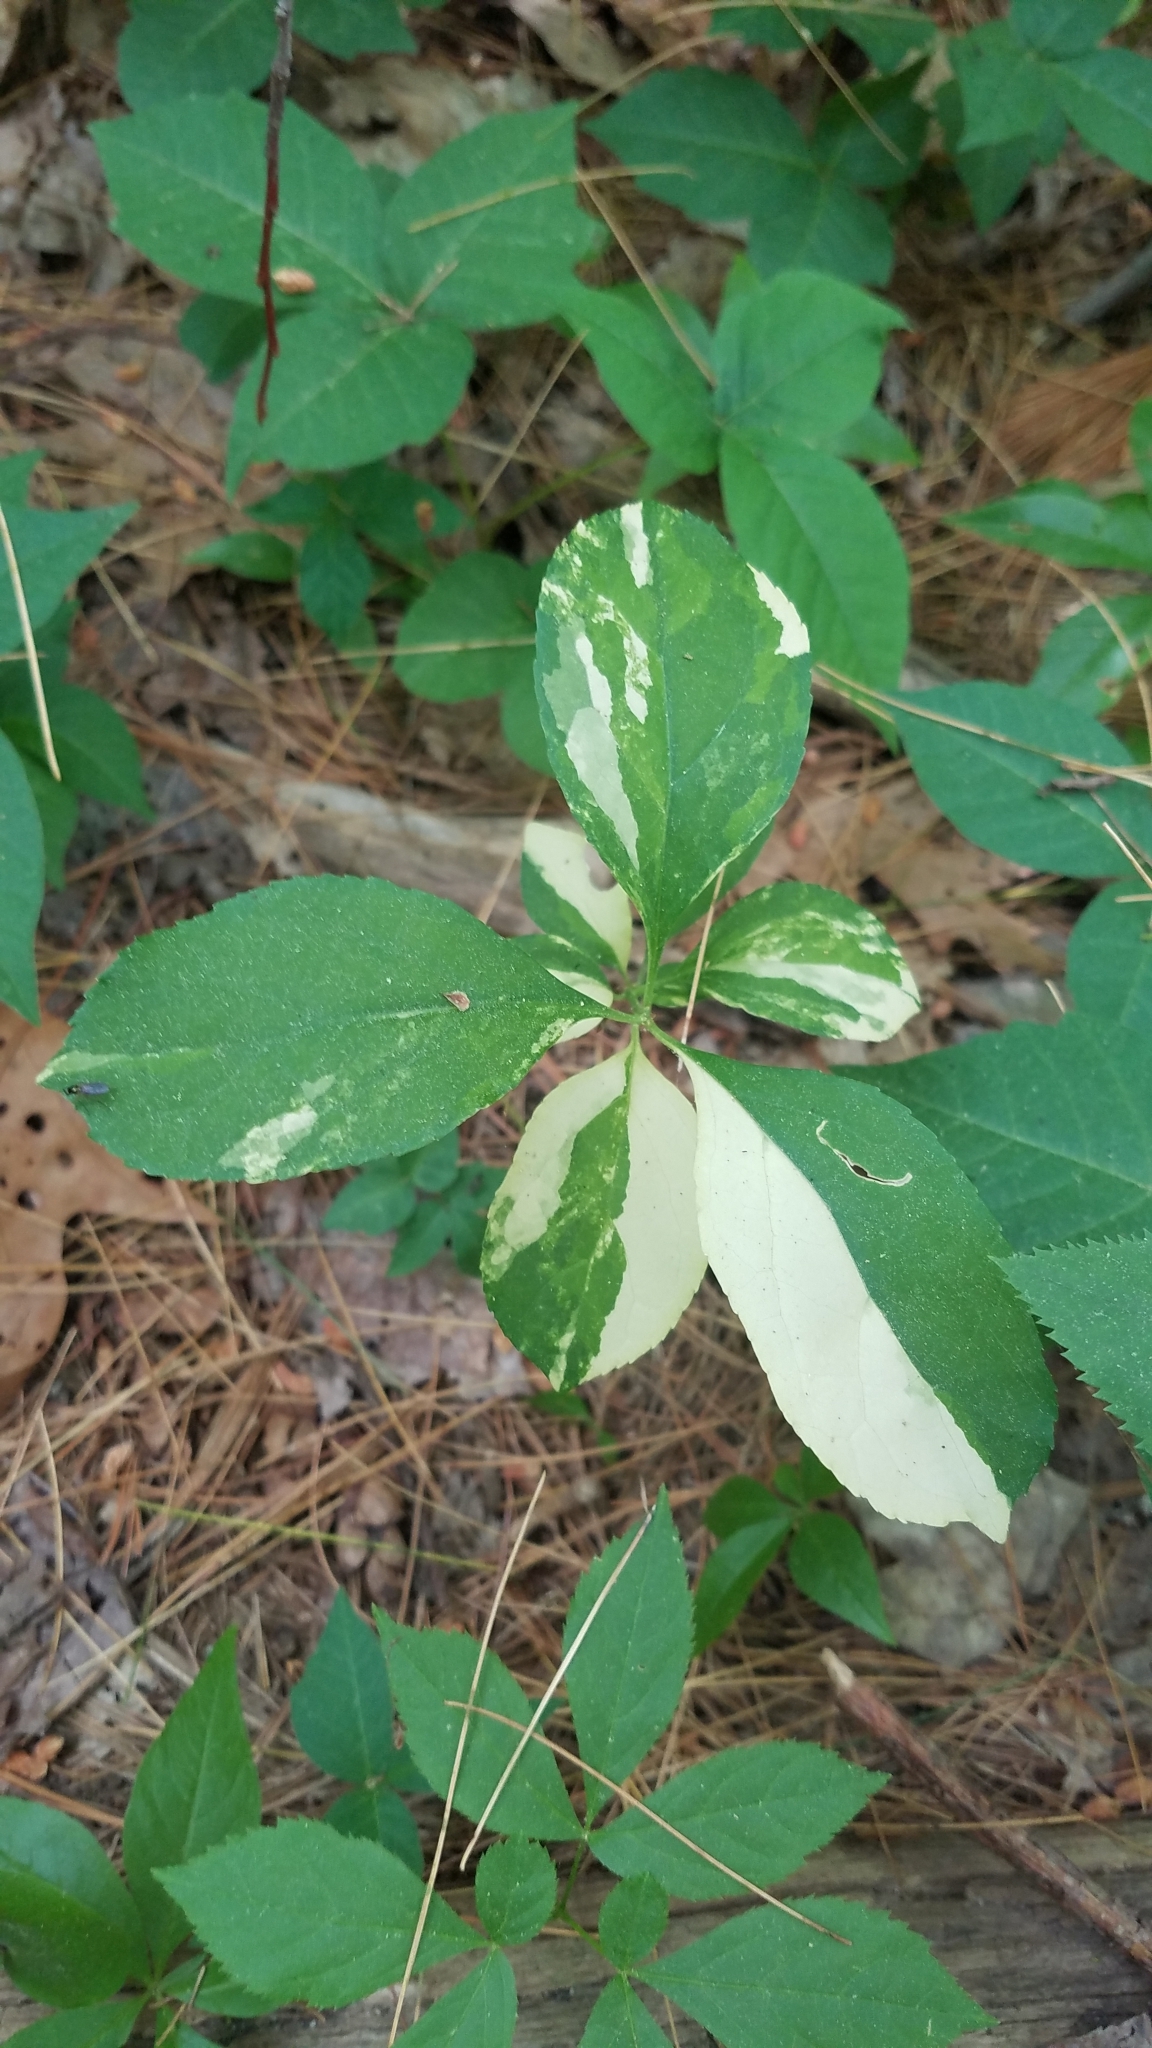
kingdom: Plantae
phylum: Tracheophyta
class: Magnoliopsida
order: Celastrales
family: Celastraceae
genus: Celastrus
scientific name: Celastrus orbiculatus
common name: Oriental bittersweet
